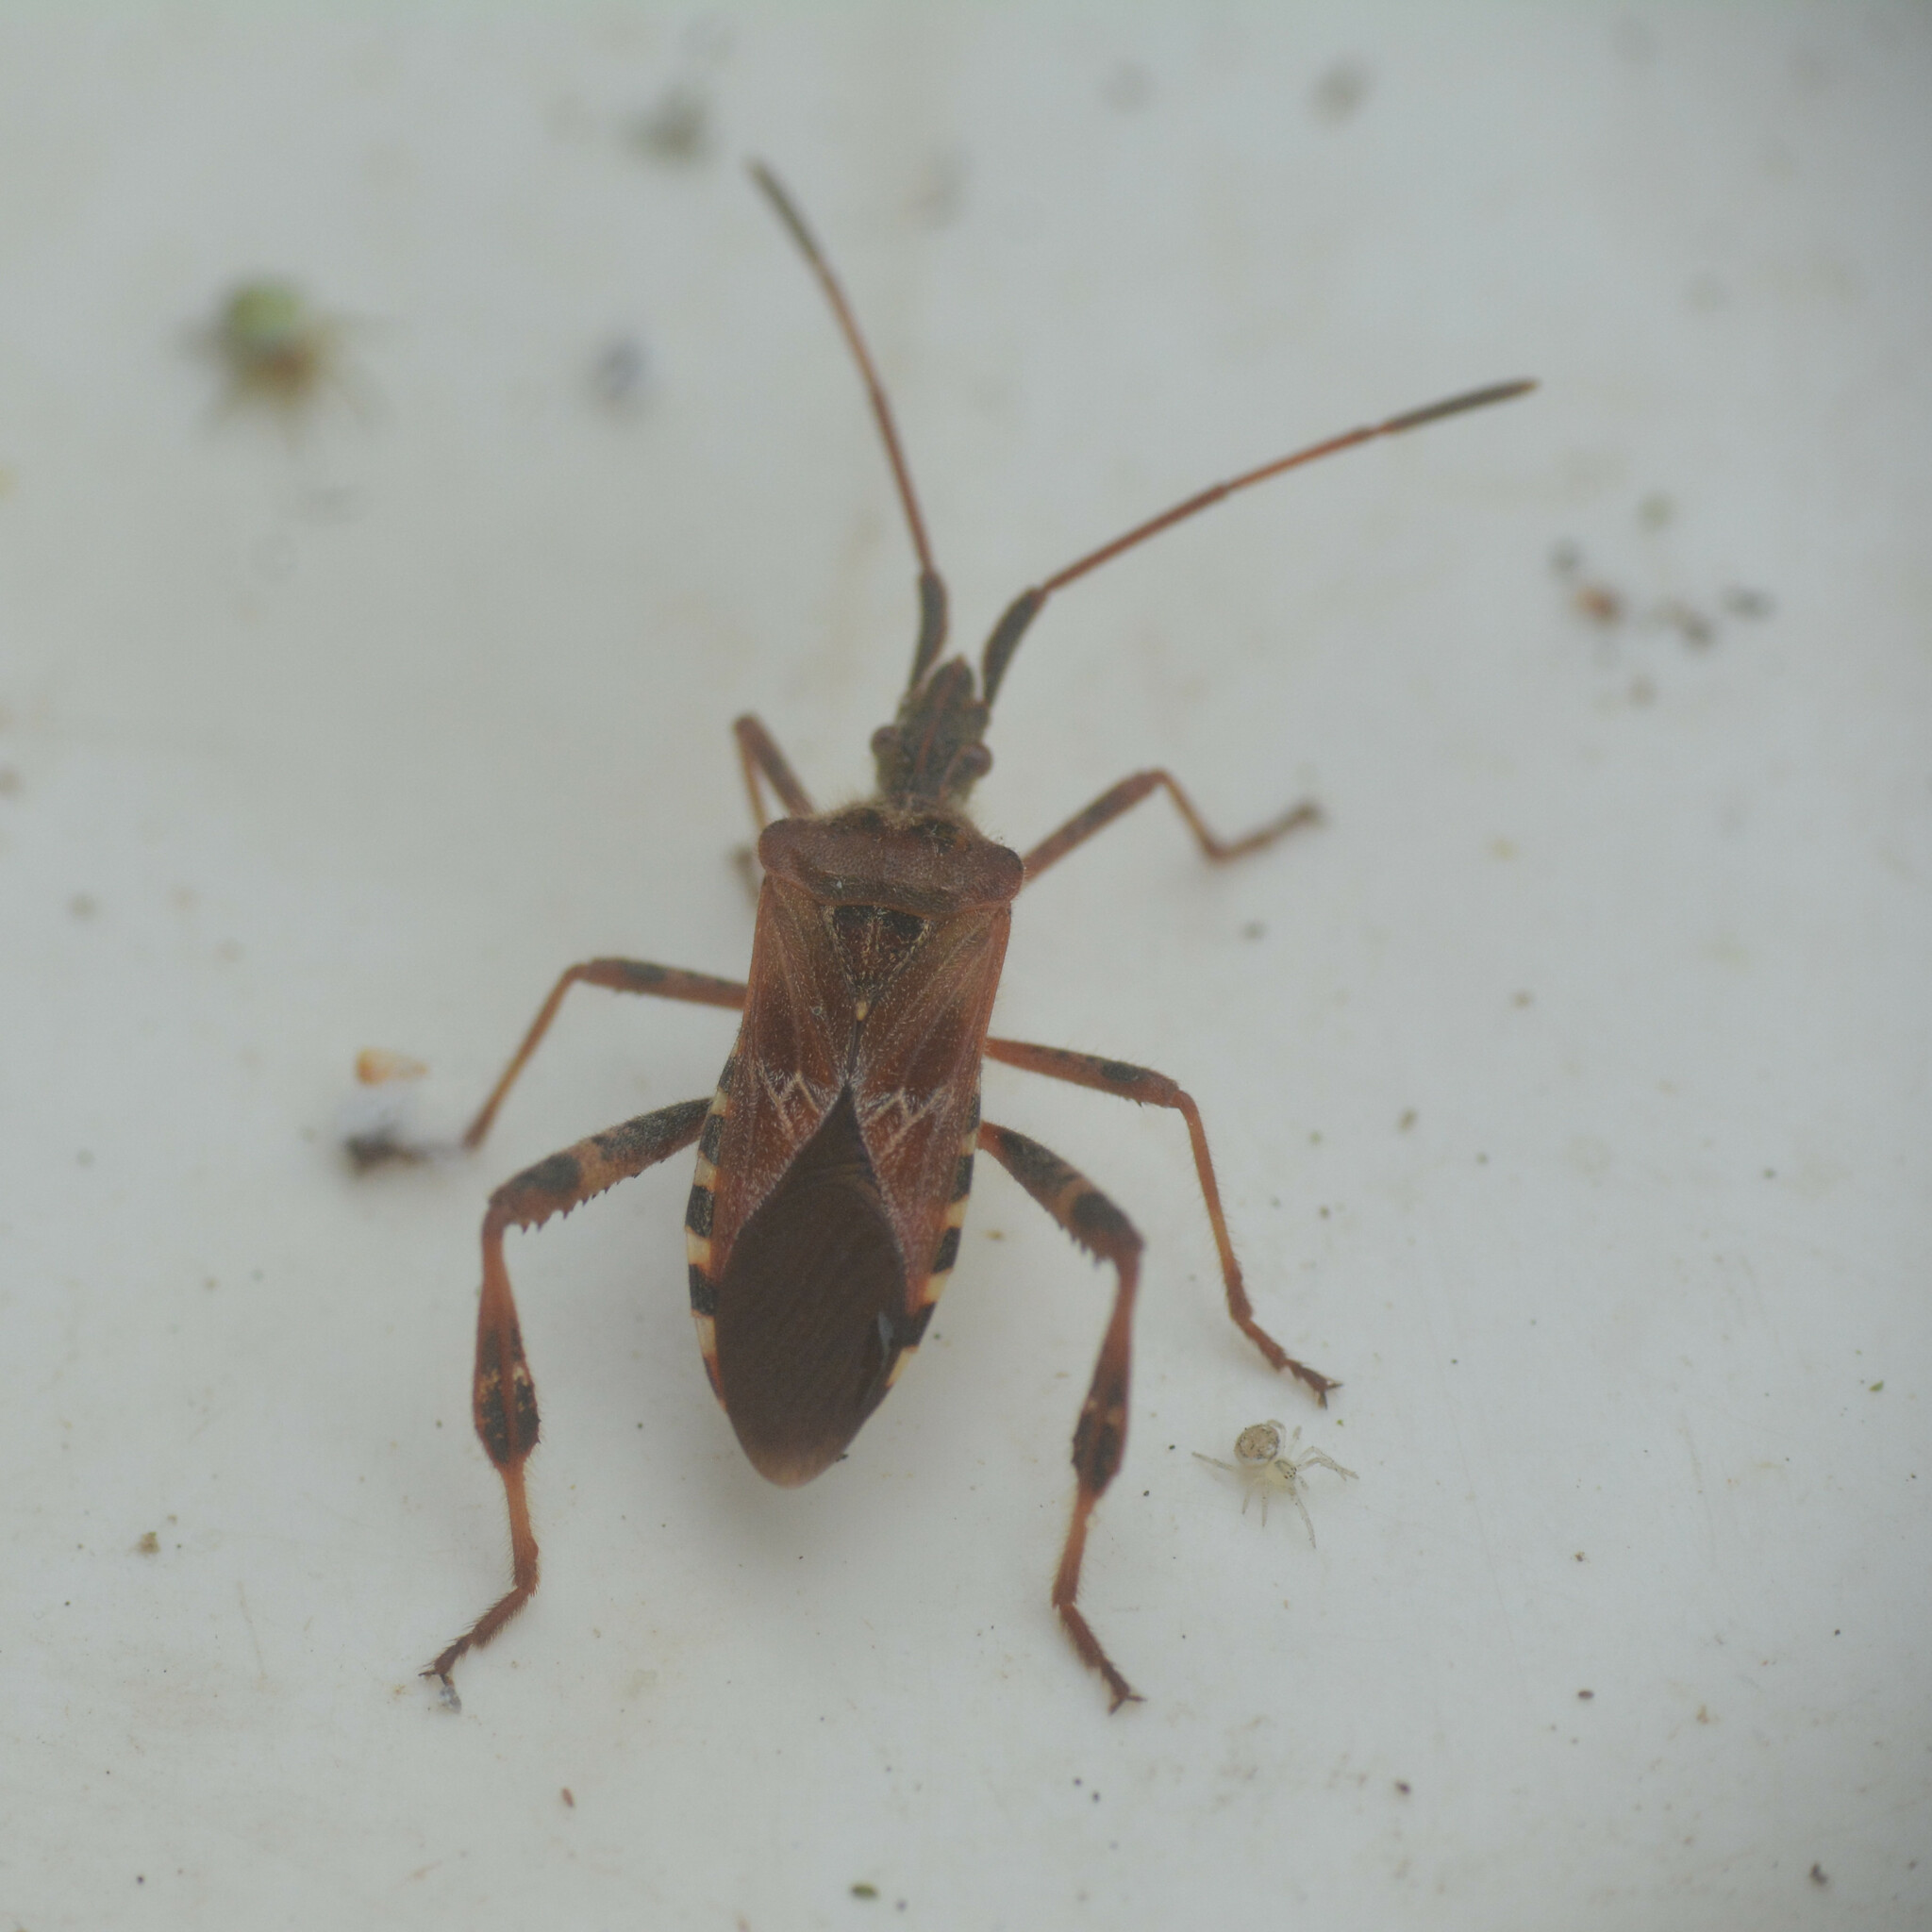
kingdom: Animalia
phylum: Arthropoda
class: Insecta
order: Hemiptera
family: Coreidae
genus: Leptoglossus
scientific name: Leptoglossus occidentalis
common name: Western conifer-seed bug
